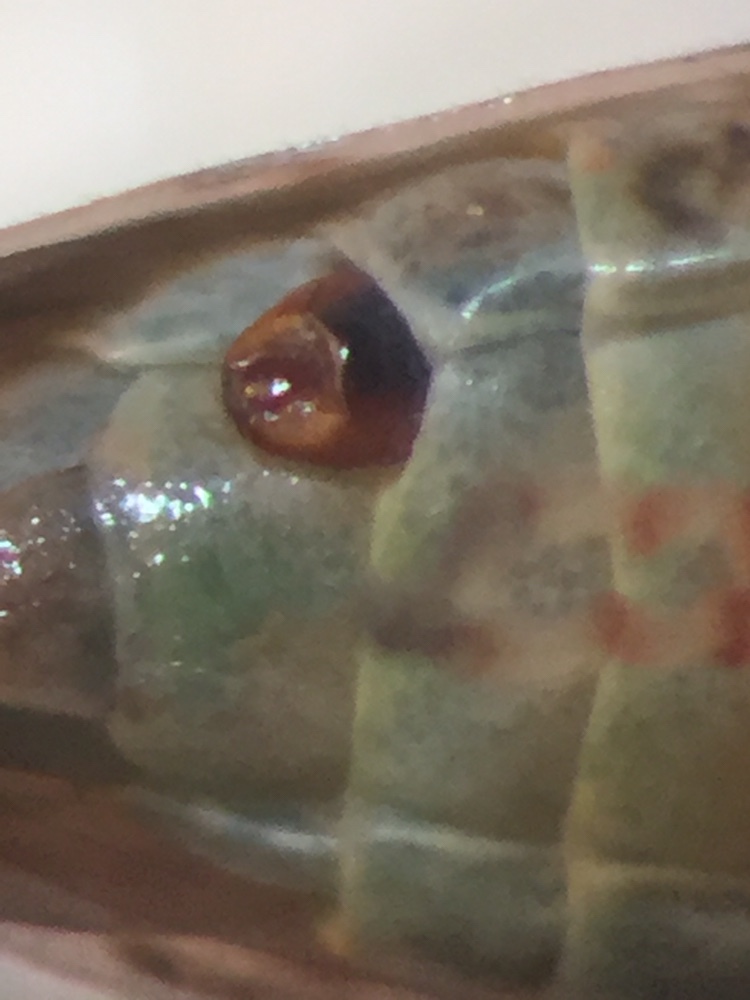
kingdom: Animalia
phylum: Arthropoda
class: Insecta
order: Strepsiptera
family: Halictophagidae
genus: Coriophagus
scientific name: Coriophagus casui
